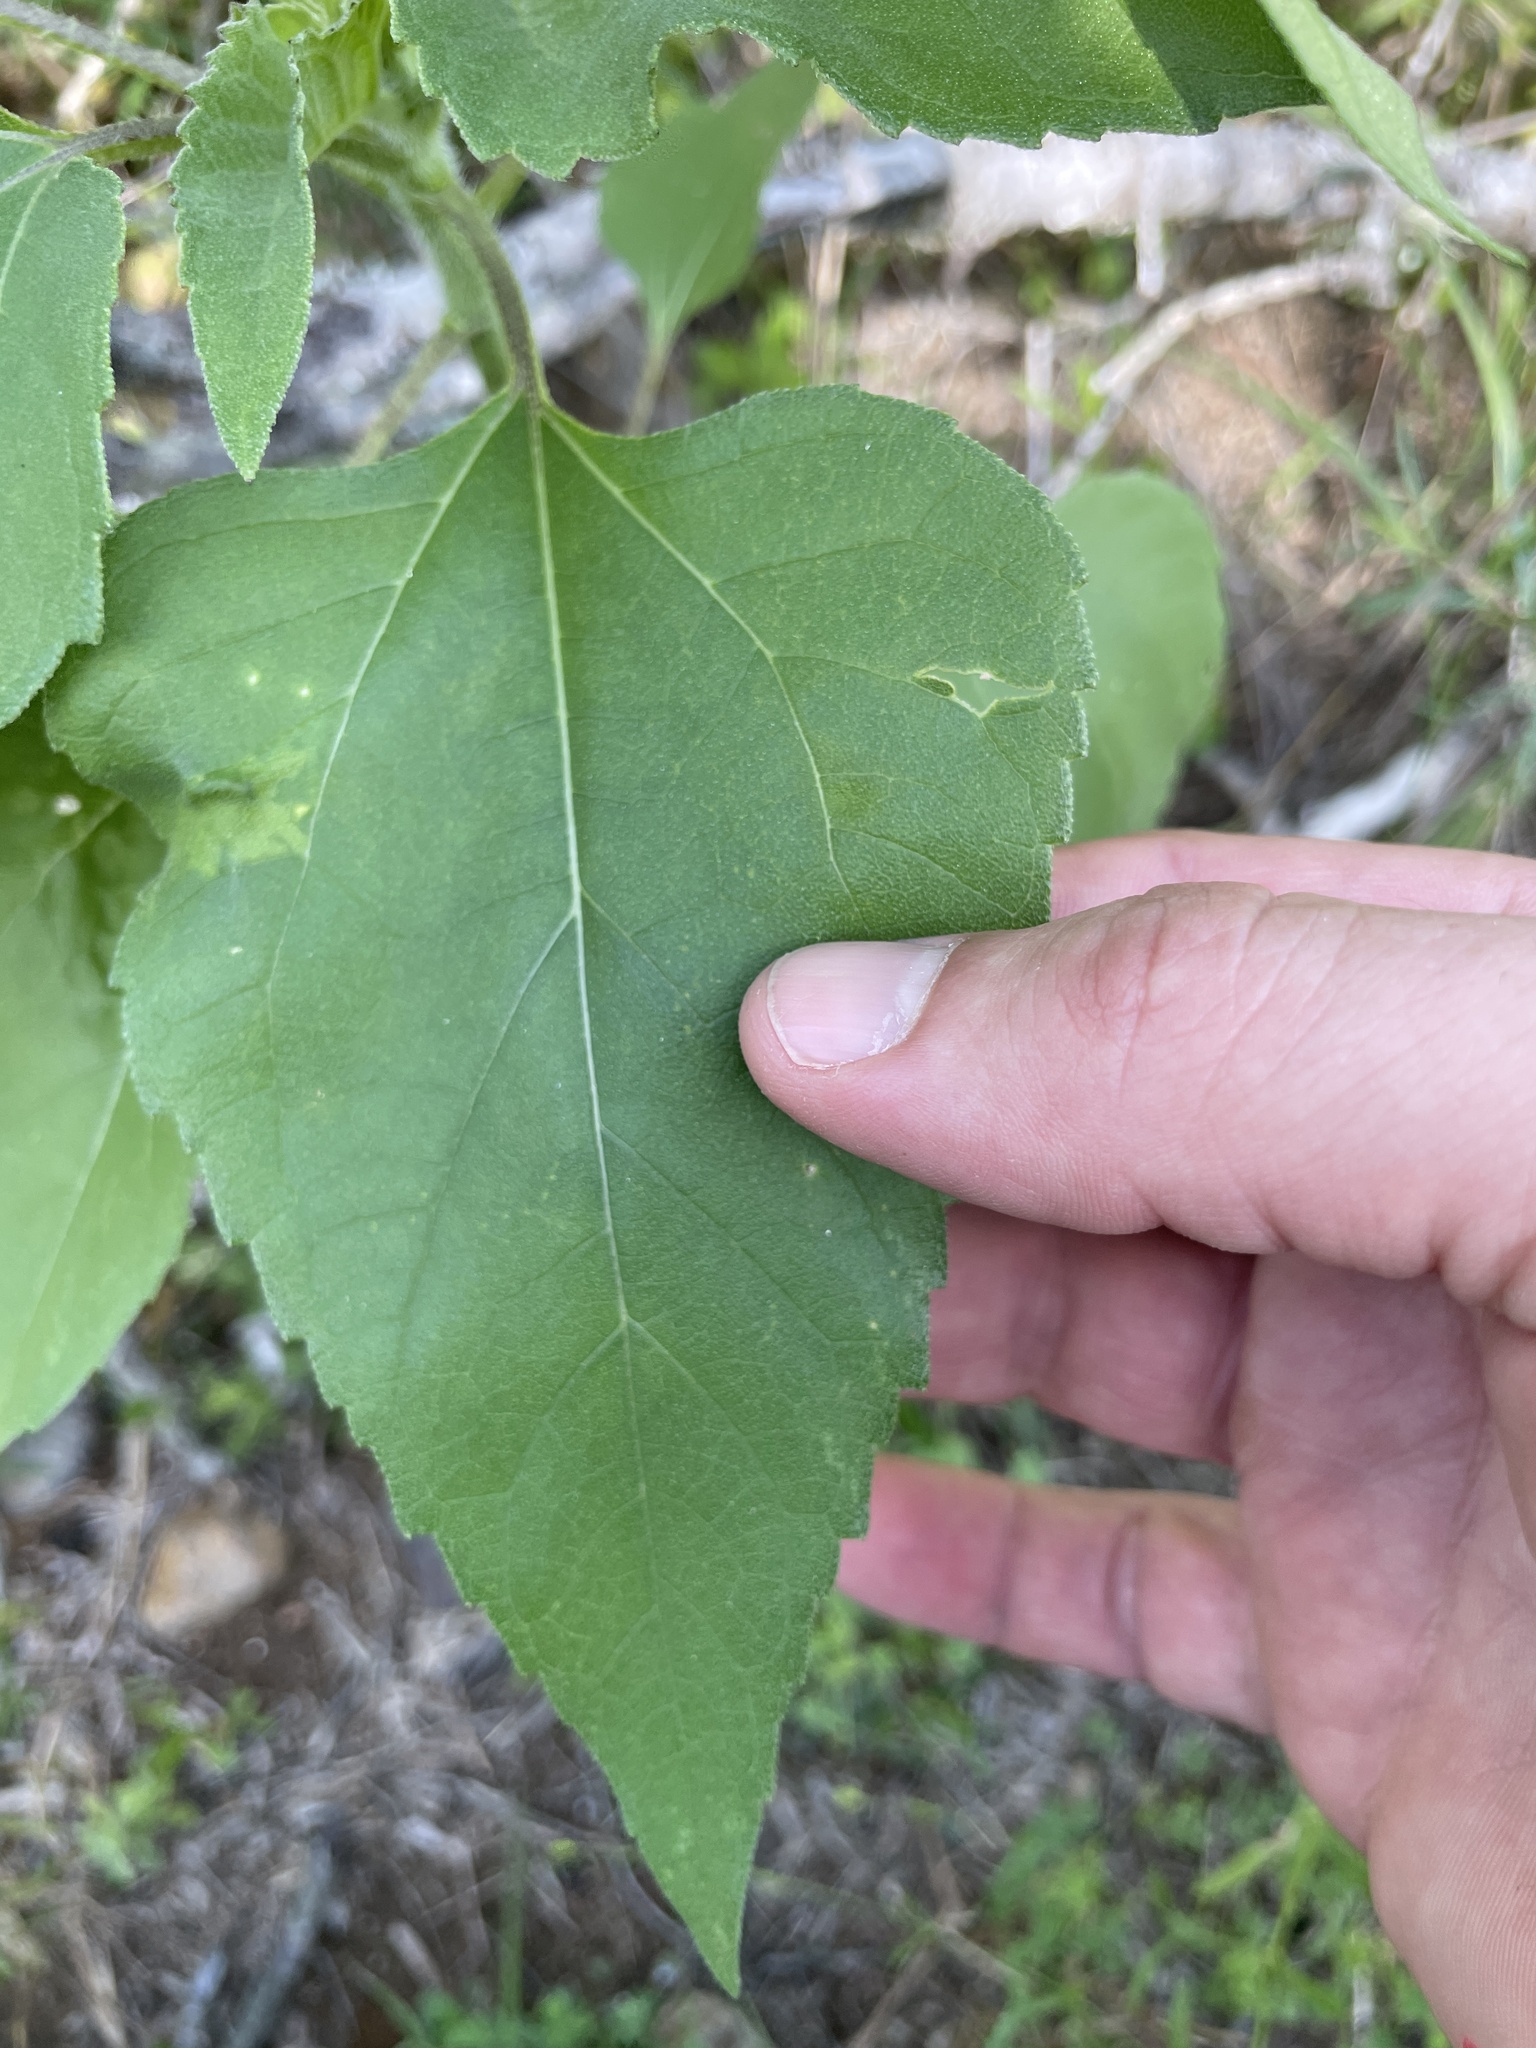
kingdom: Plantae
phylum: Tracheophyta
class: Magnoliopsida
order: Asterales
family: Asteraceae
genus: Helianthus
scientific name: Helianthus annuus
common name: Sunflower
